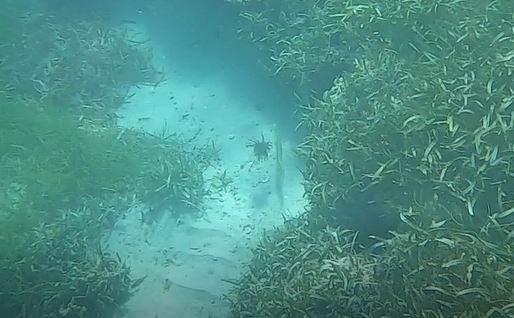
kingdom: Animalia
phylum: Chordata
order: Scorpaeniformes
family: Scorpaenidae
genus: Pterois
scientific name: Pterois volitans
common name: Lionfish
